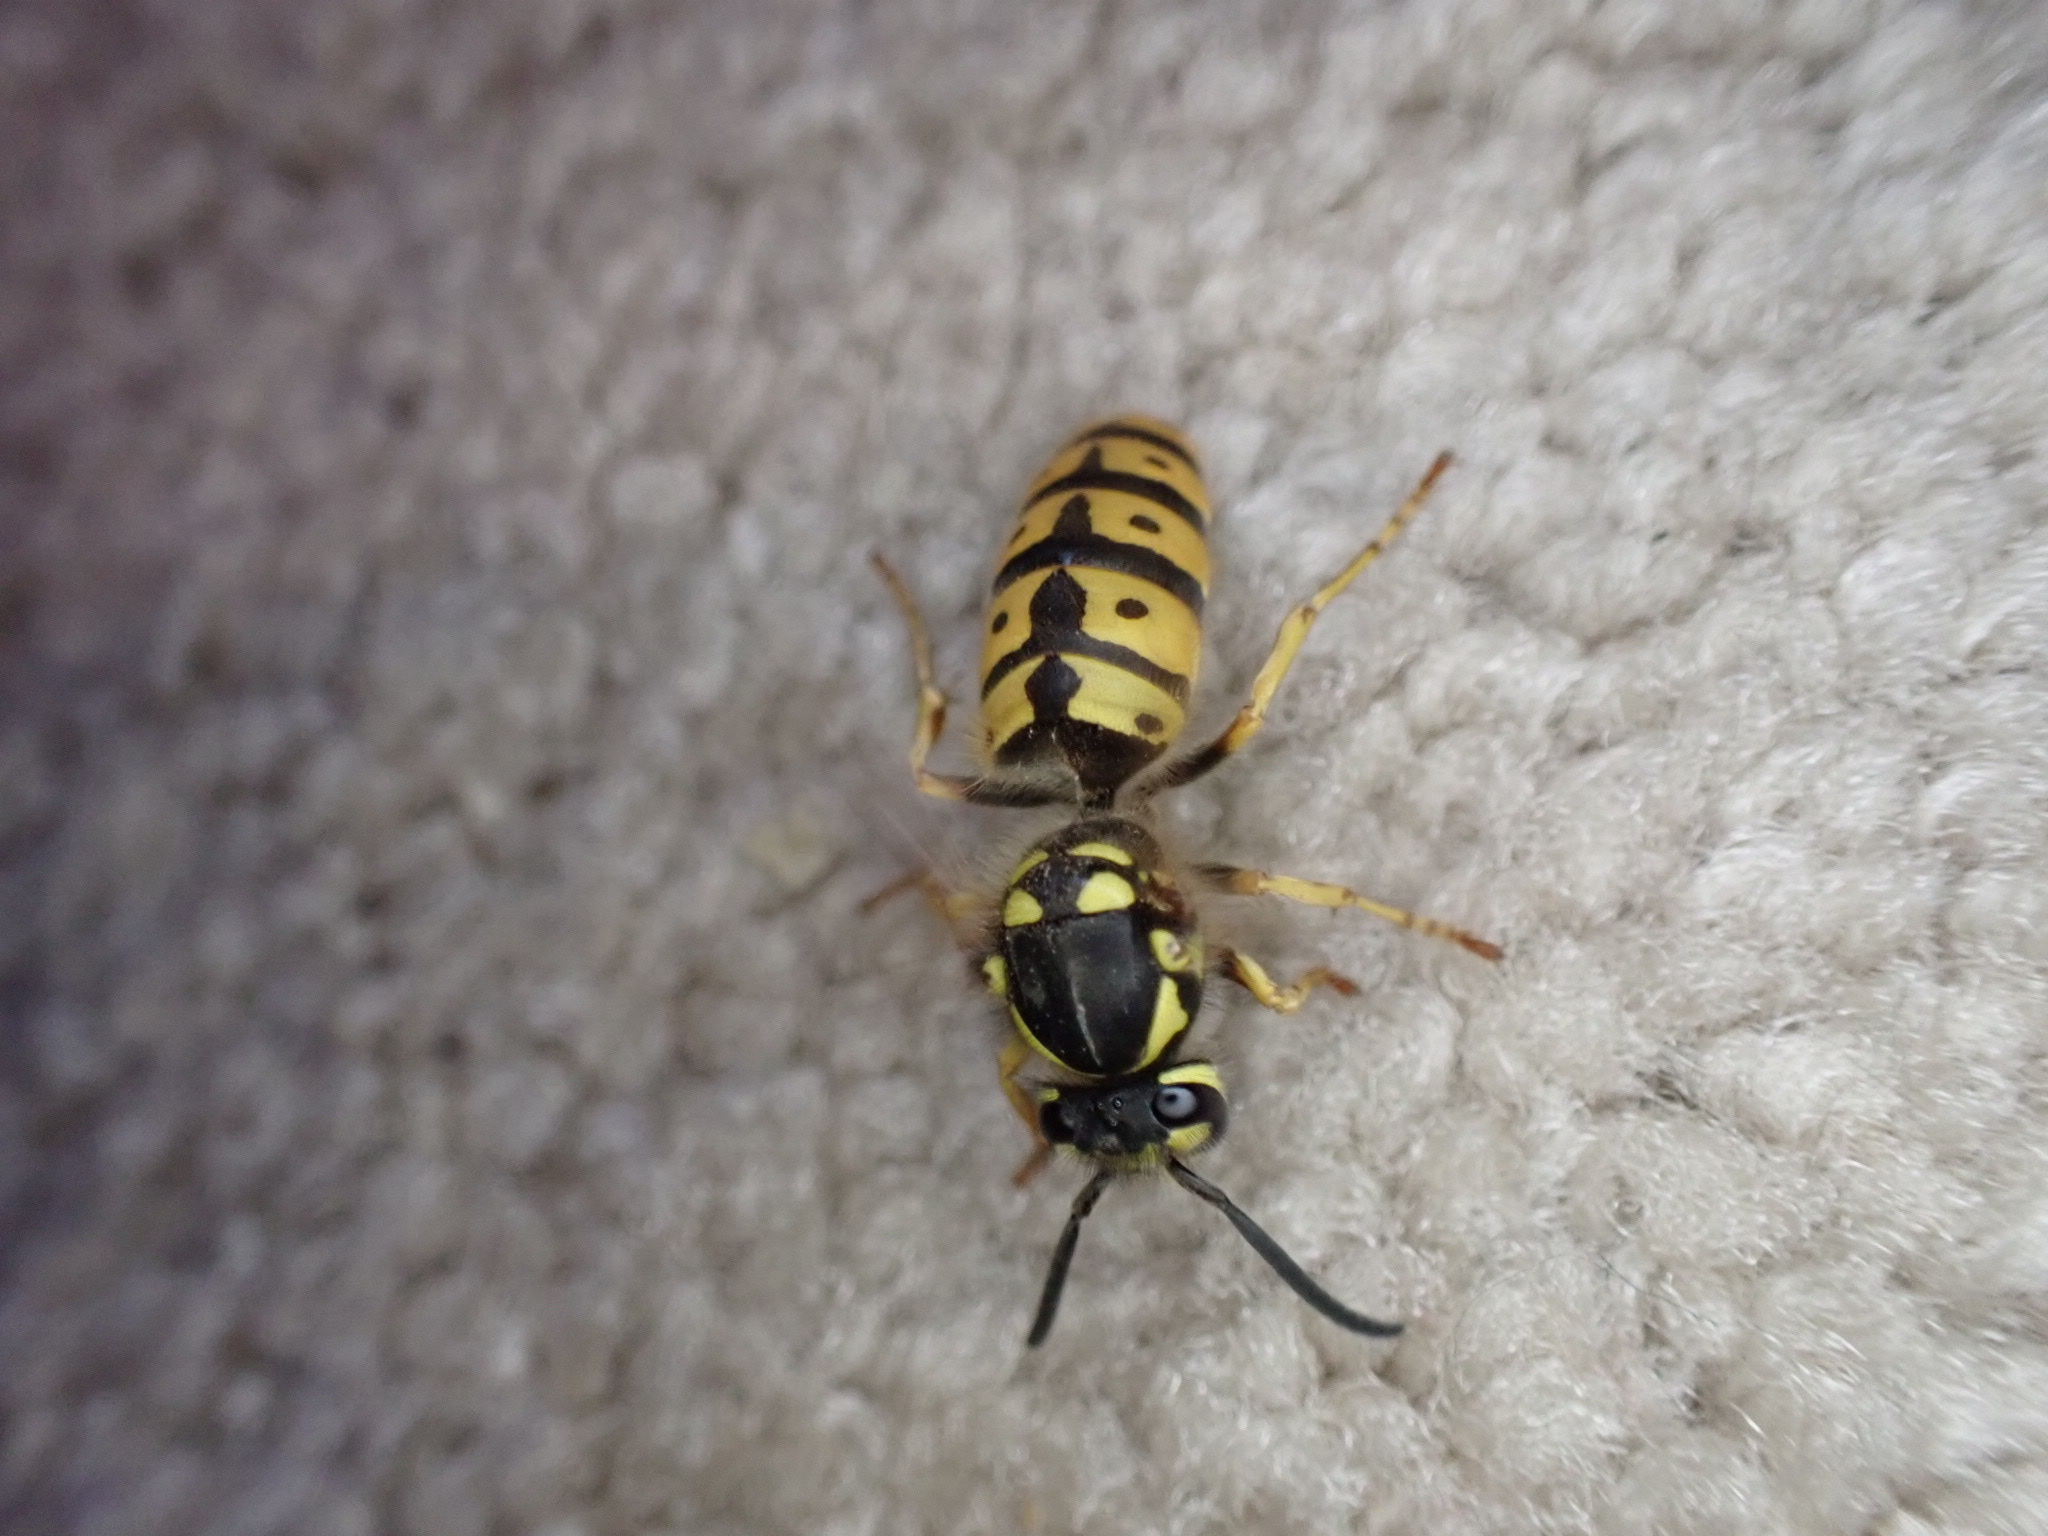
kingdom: Animalia
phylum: Arthropoda
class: Insecta
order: Hymenoptera
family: Vespidae
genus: Vespula
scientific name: Vespula germanica
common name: German wasp
